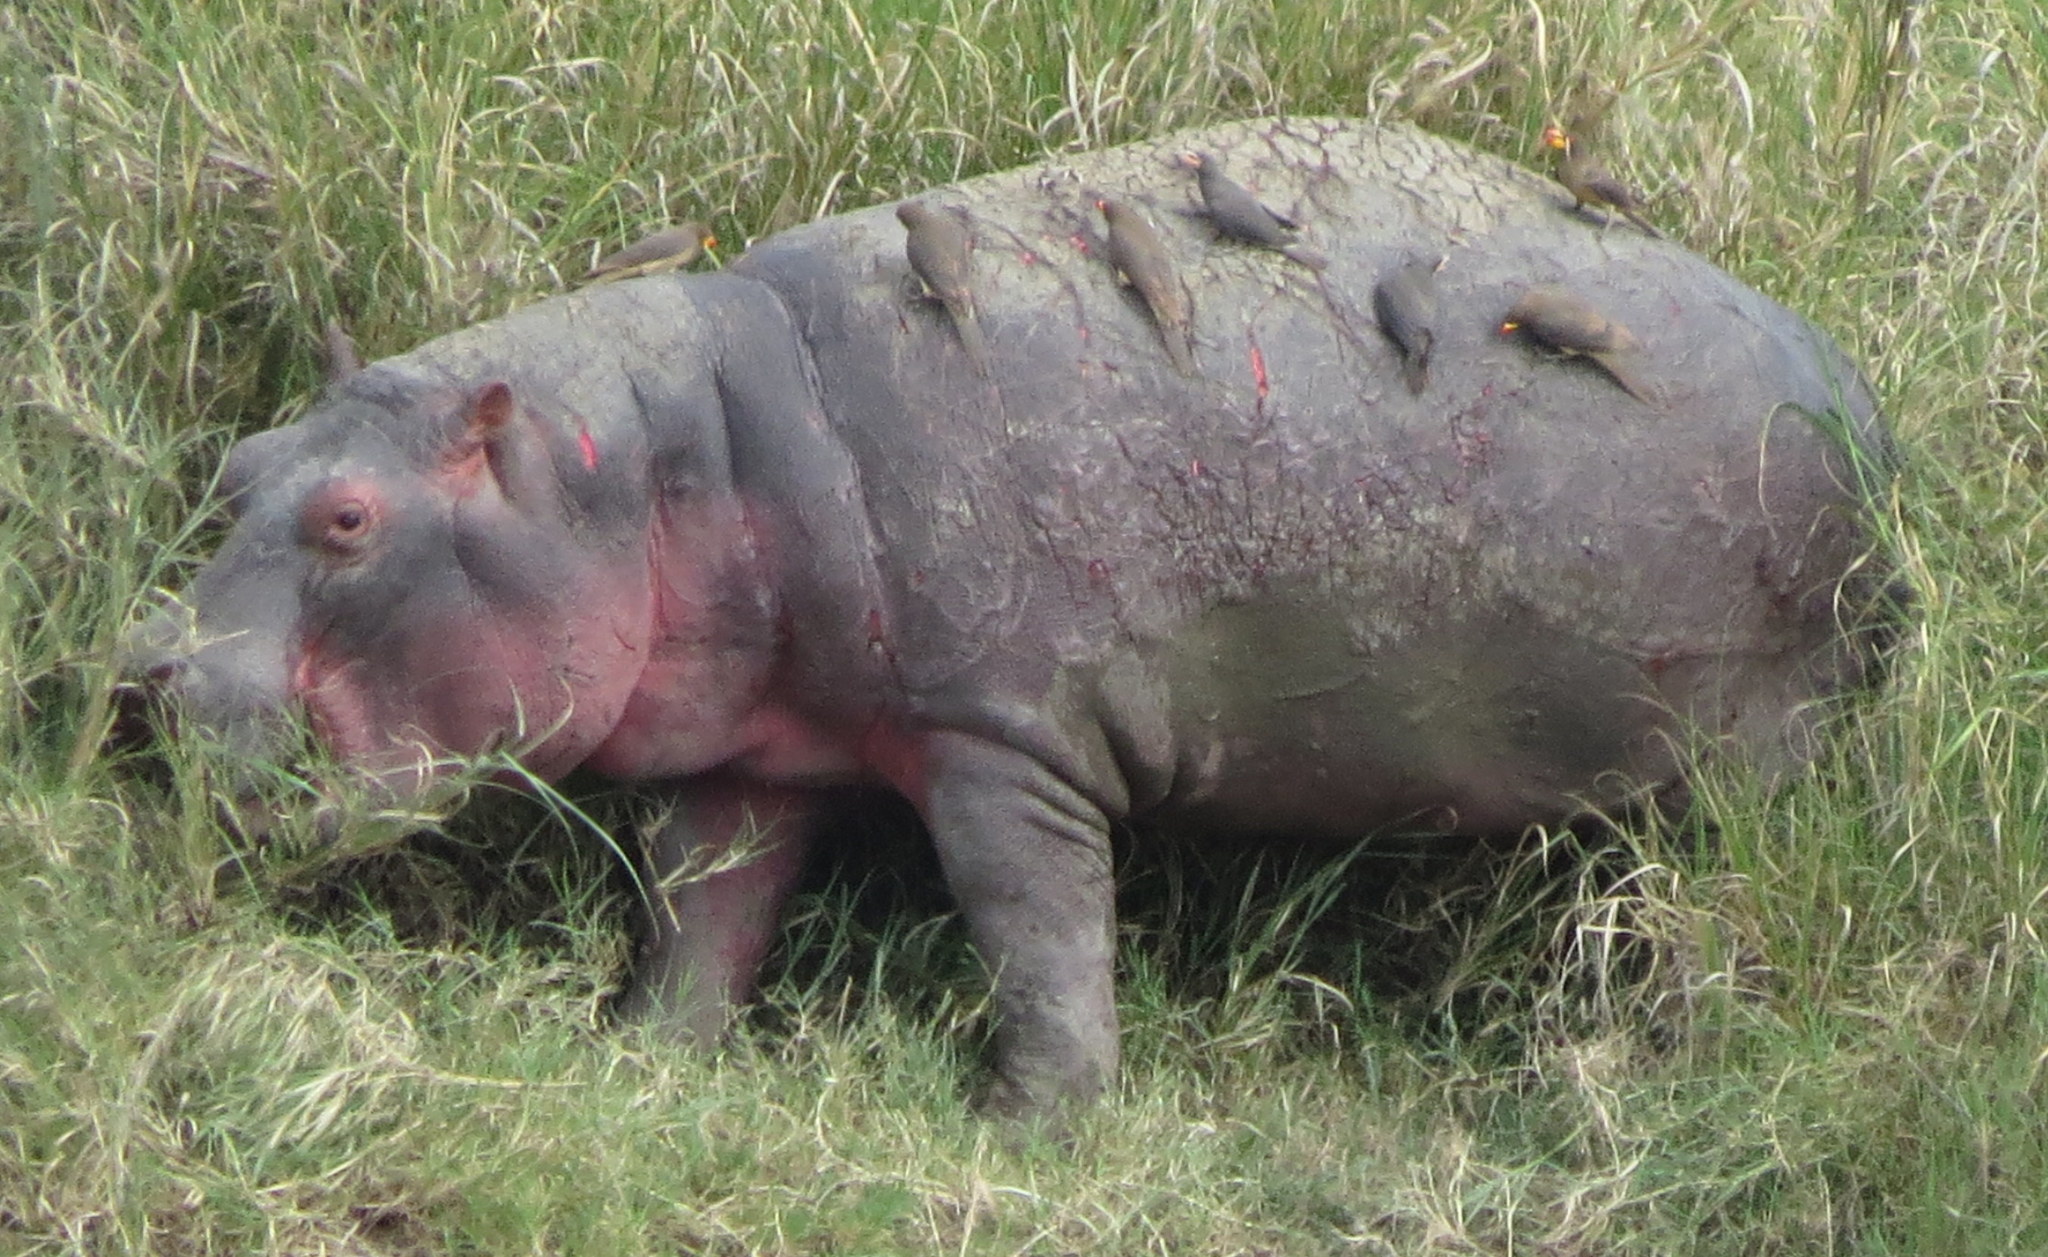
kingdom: Animalia
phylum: Chordata
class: Mammalia
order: Artiodactyla
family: Hippopotamidae
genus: Hippopotamus
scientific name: Hippopotamus amphibius
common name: Common hippopotamus
